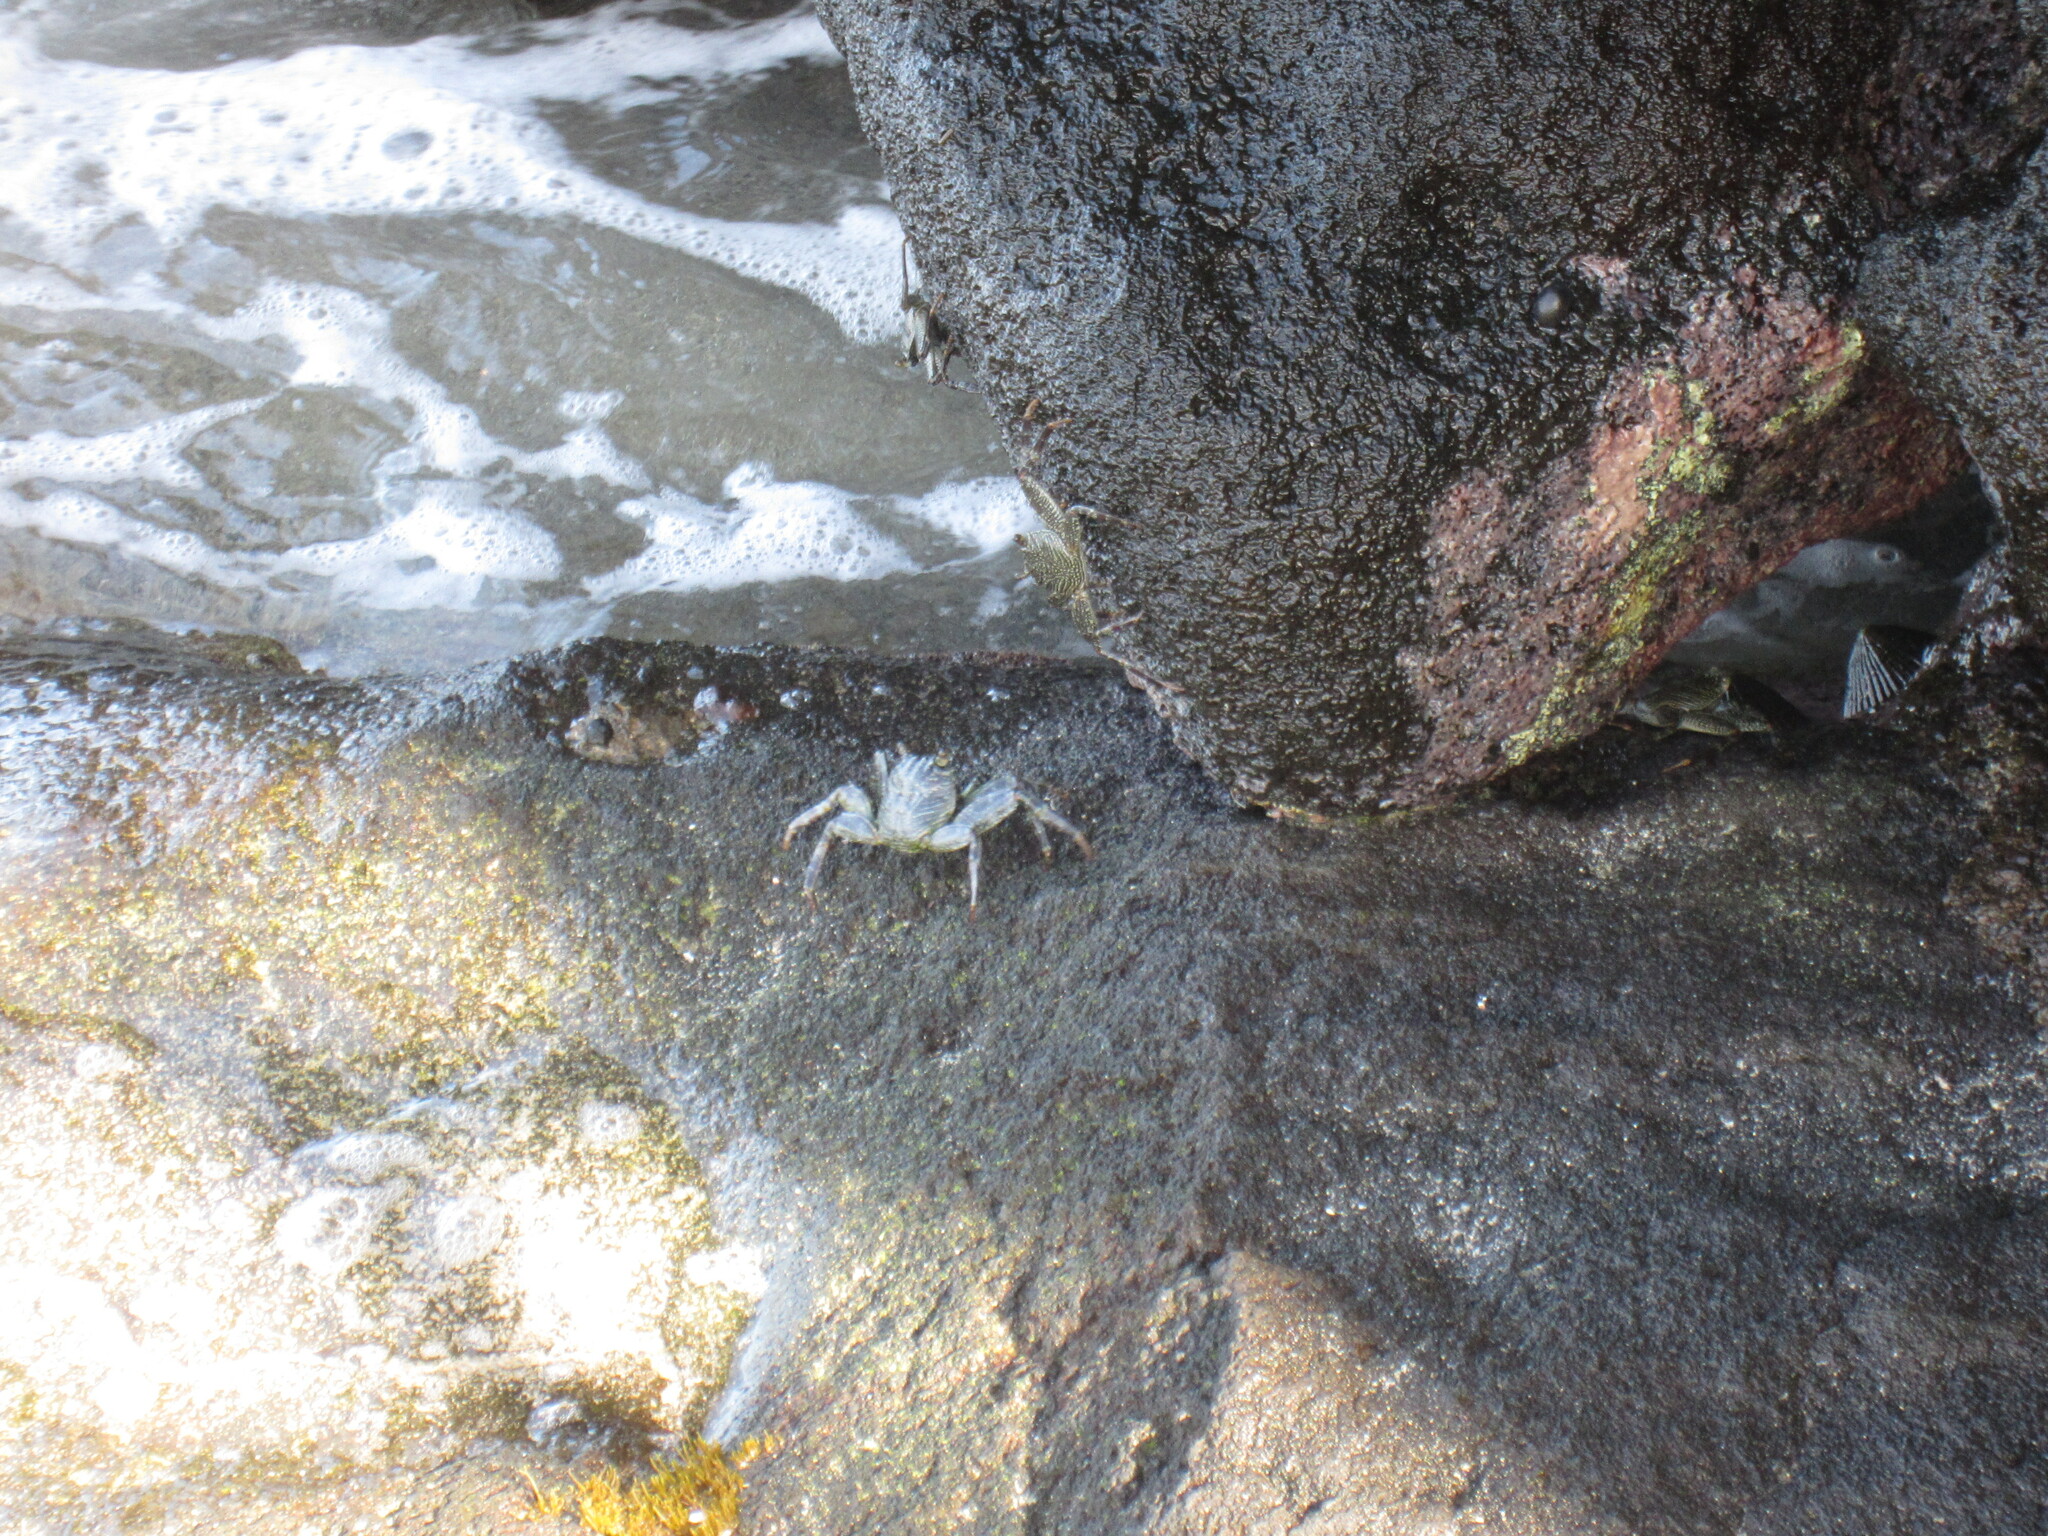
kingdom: Animalia
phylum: Arthropoda
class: Malacostraca
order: Decapoda
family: Grapsidae
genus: Grapsus
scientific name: Grapsus tenuicrustatus
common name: Natal lightfoot crab
